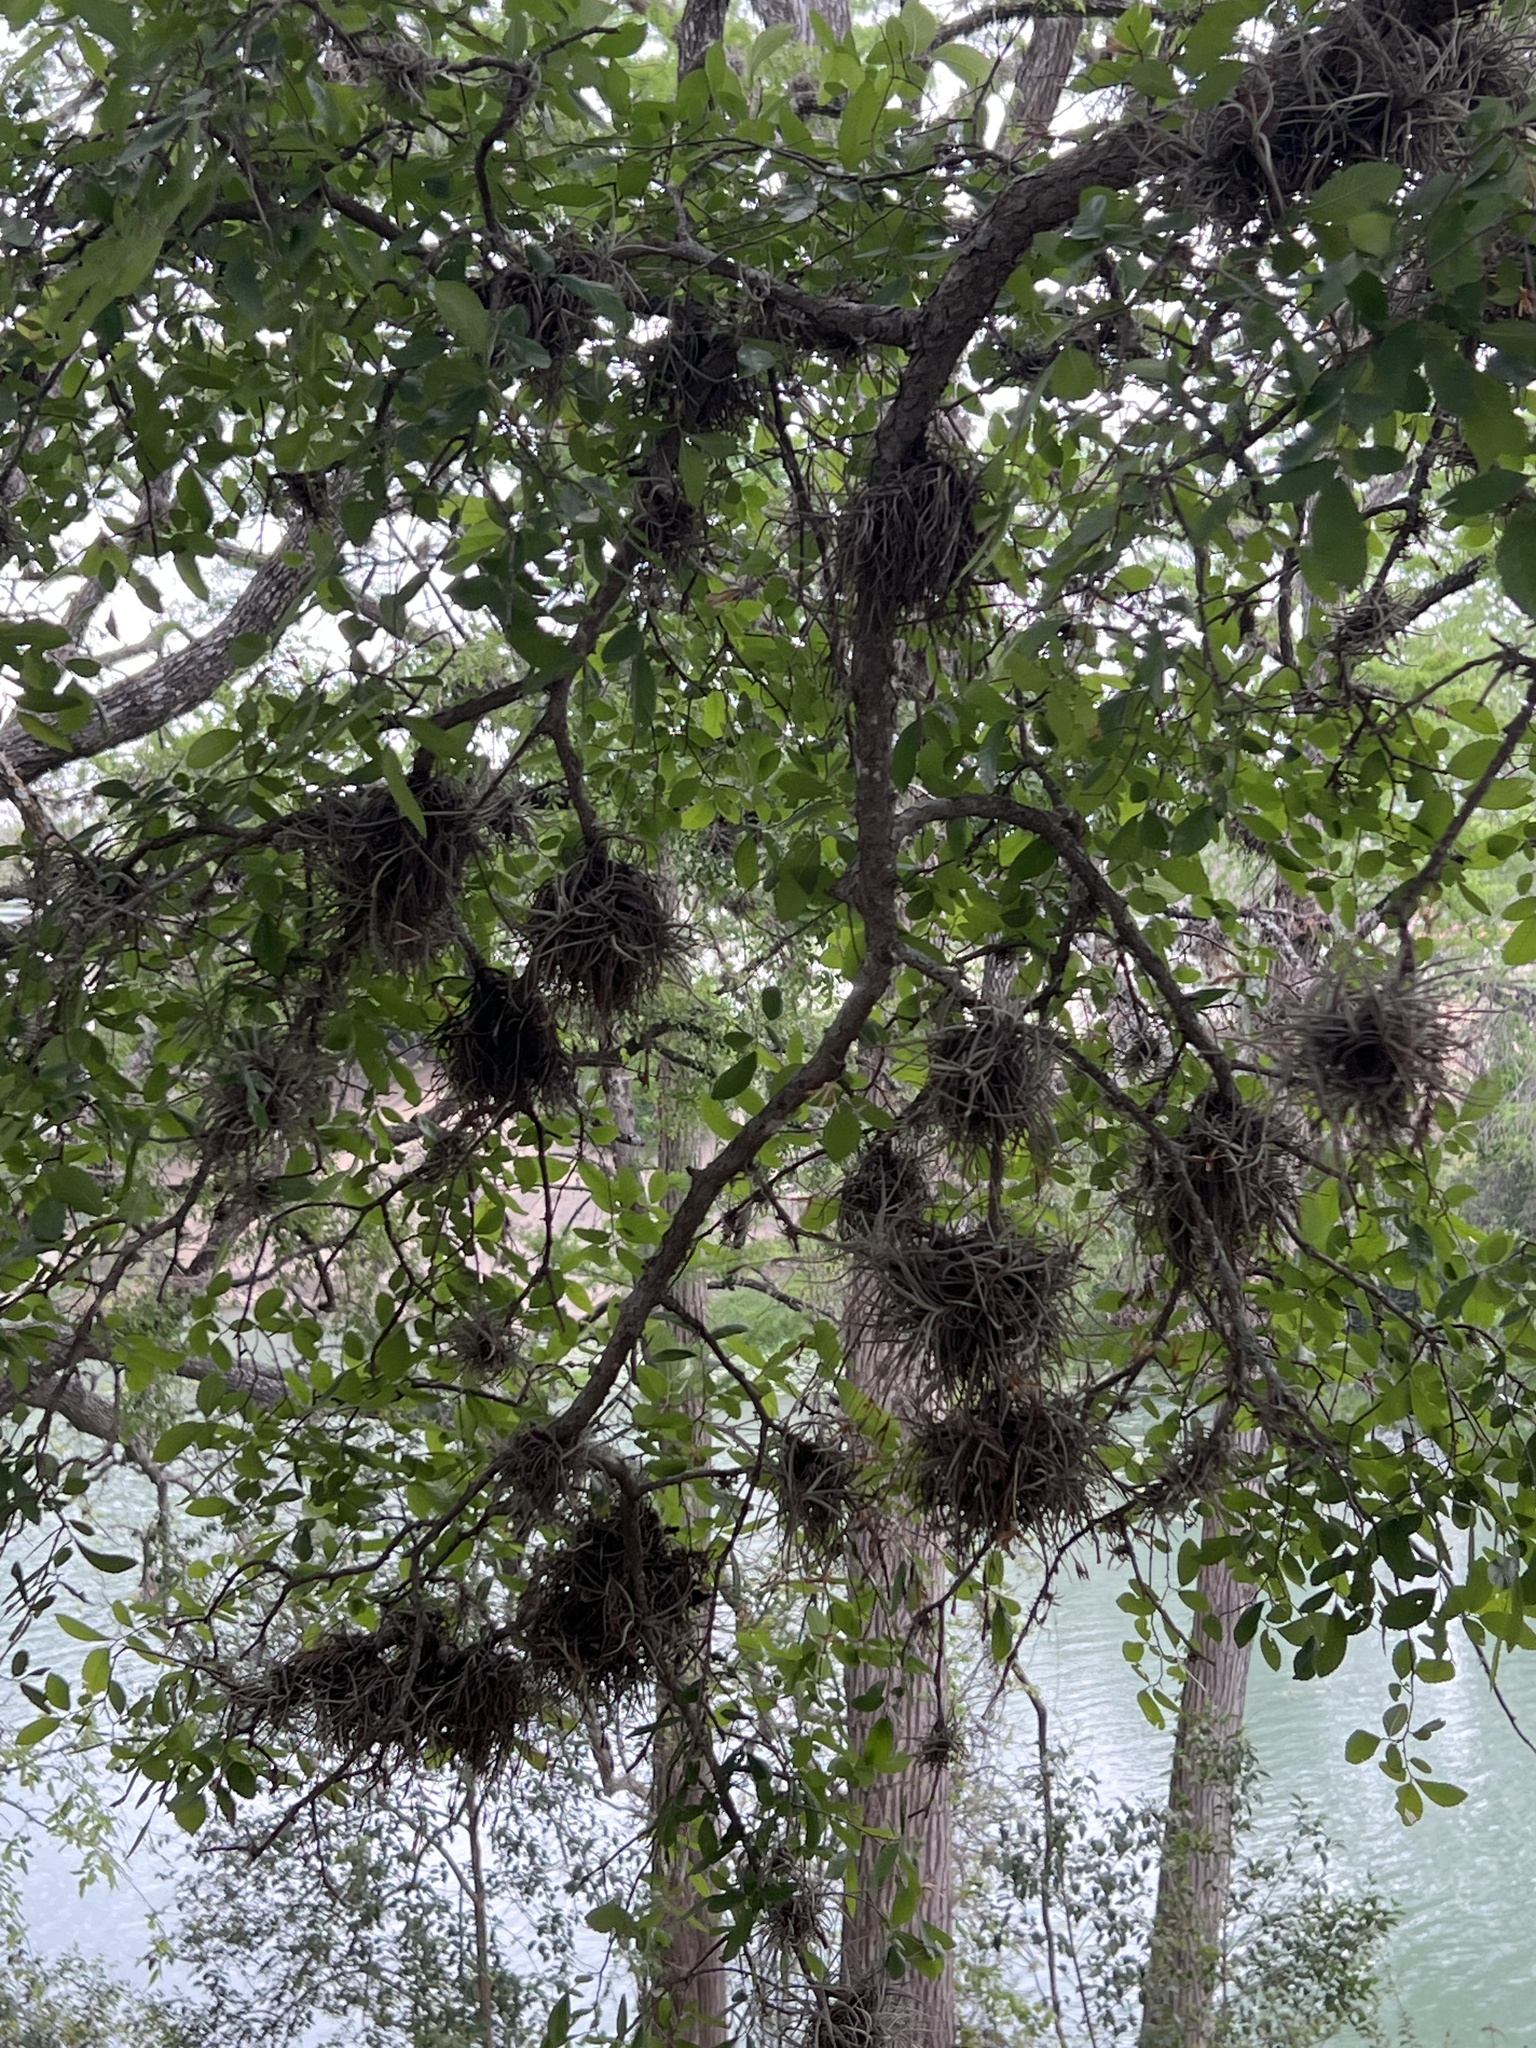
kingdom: Plantae
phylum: Tracheophyta
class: Liliopsida
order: Poales
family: Bromeliaceae
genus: Tillandsia
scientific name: Tillandsia recurvata
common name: Small ballmoss
